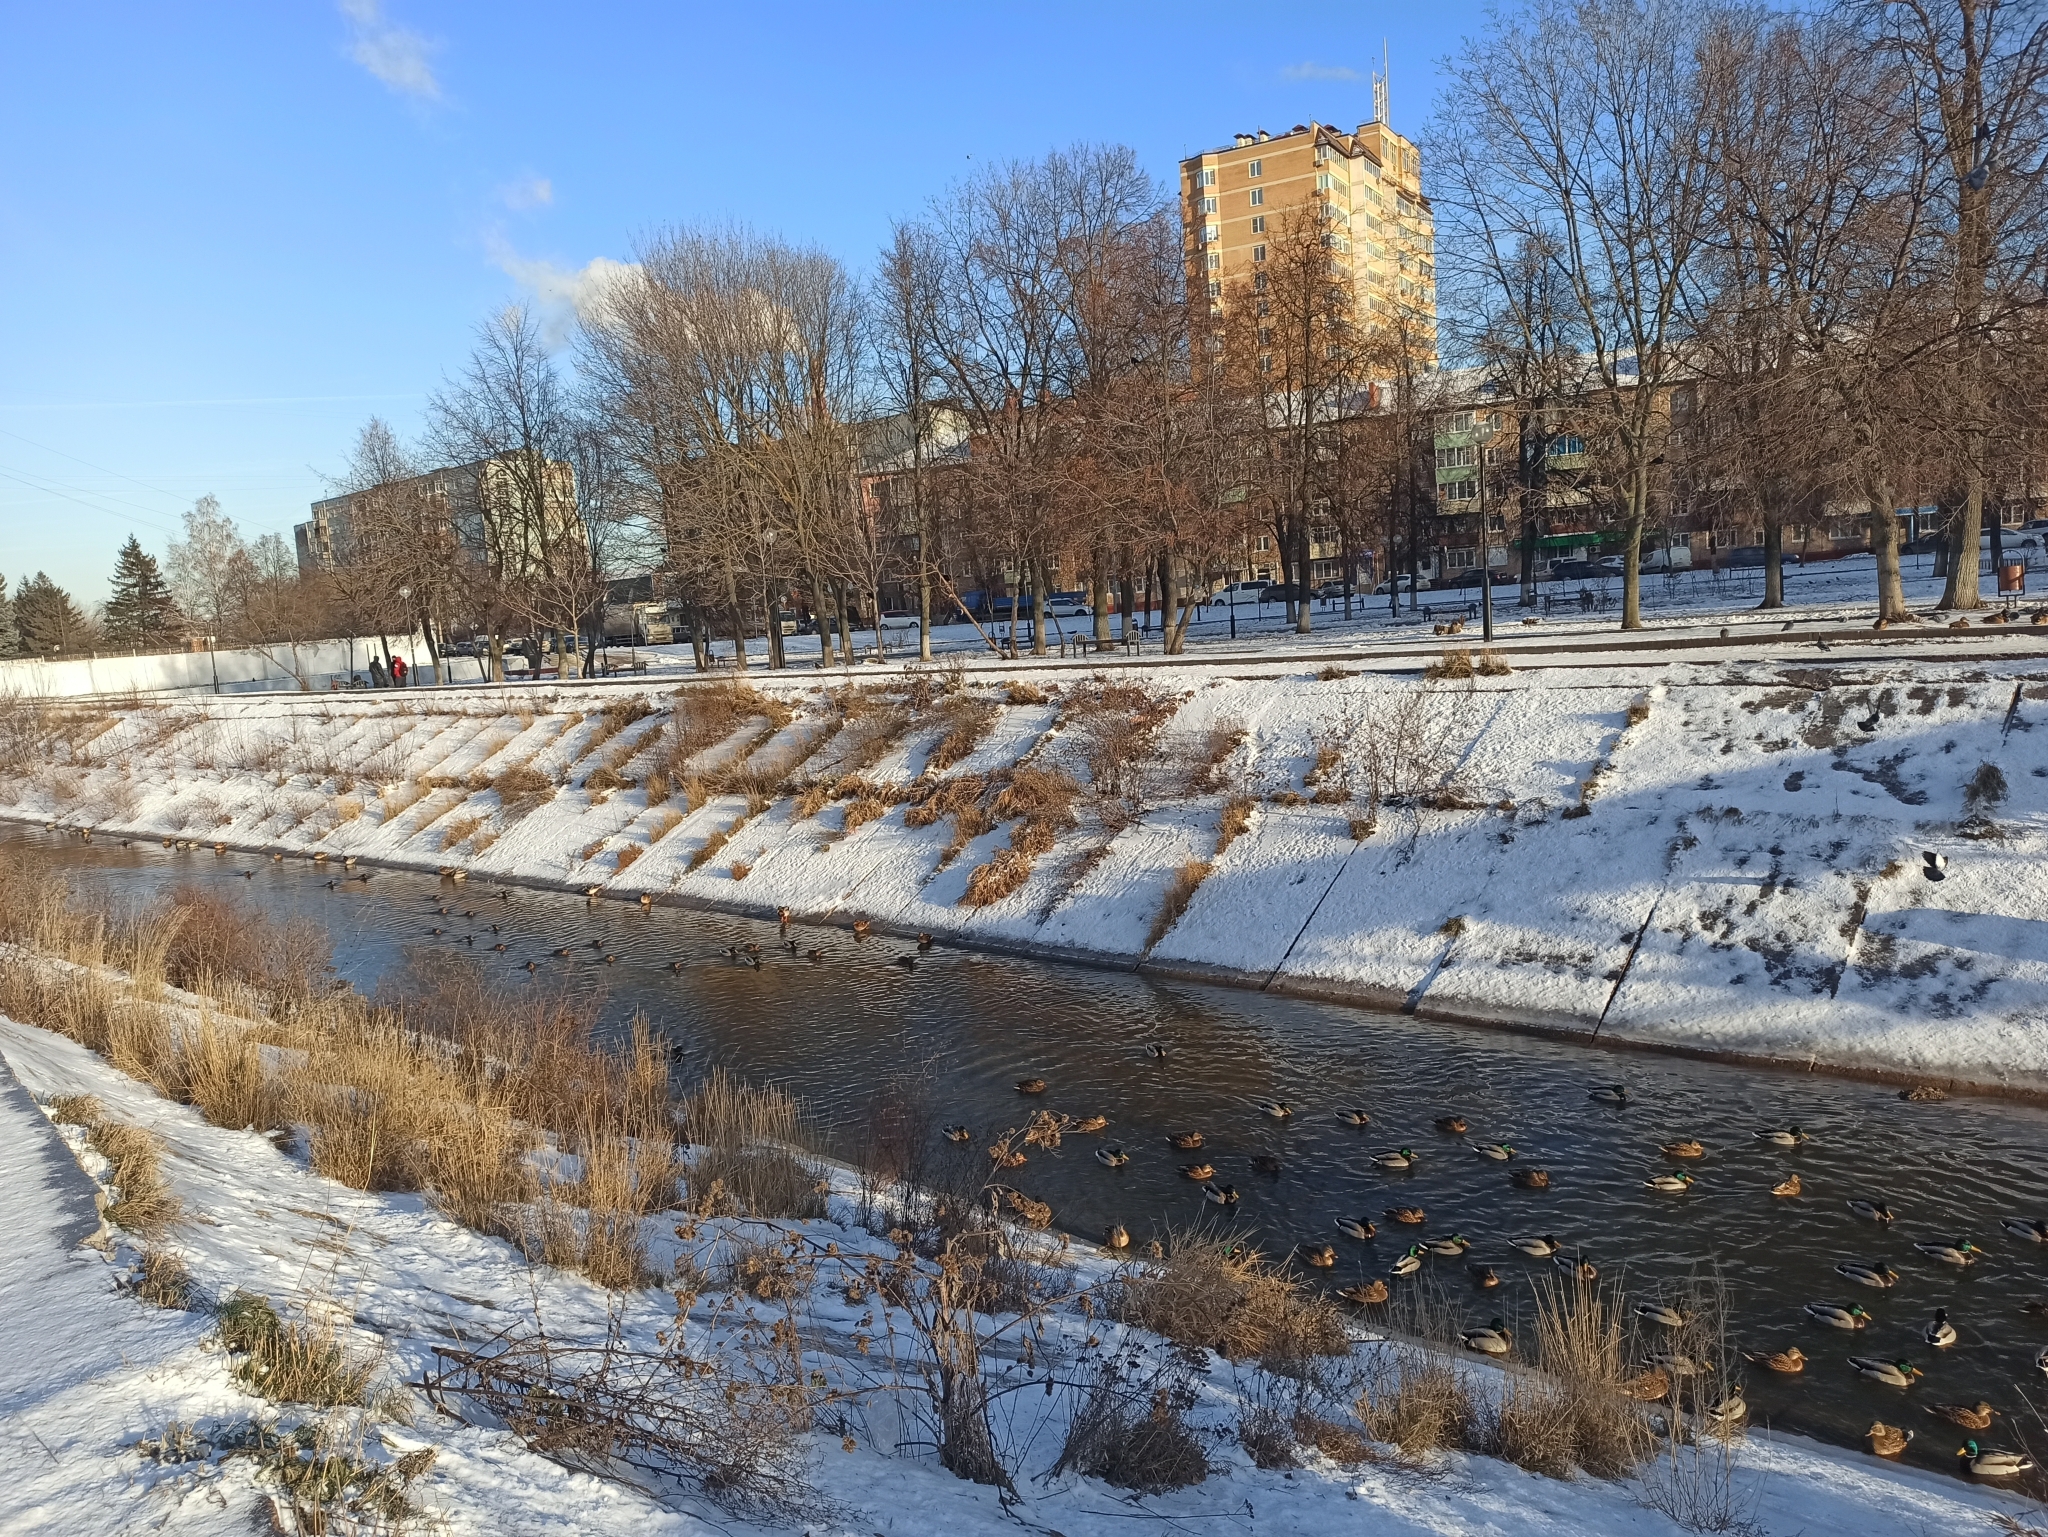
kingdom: Animalia
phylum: Chordata
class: Aves
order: Anseriformes
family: Anatidae
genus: Anas
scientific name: Anas platyrhynchos
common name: Mallard
